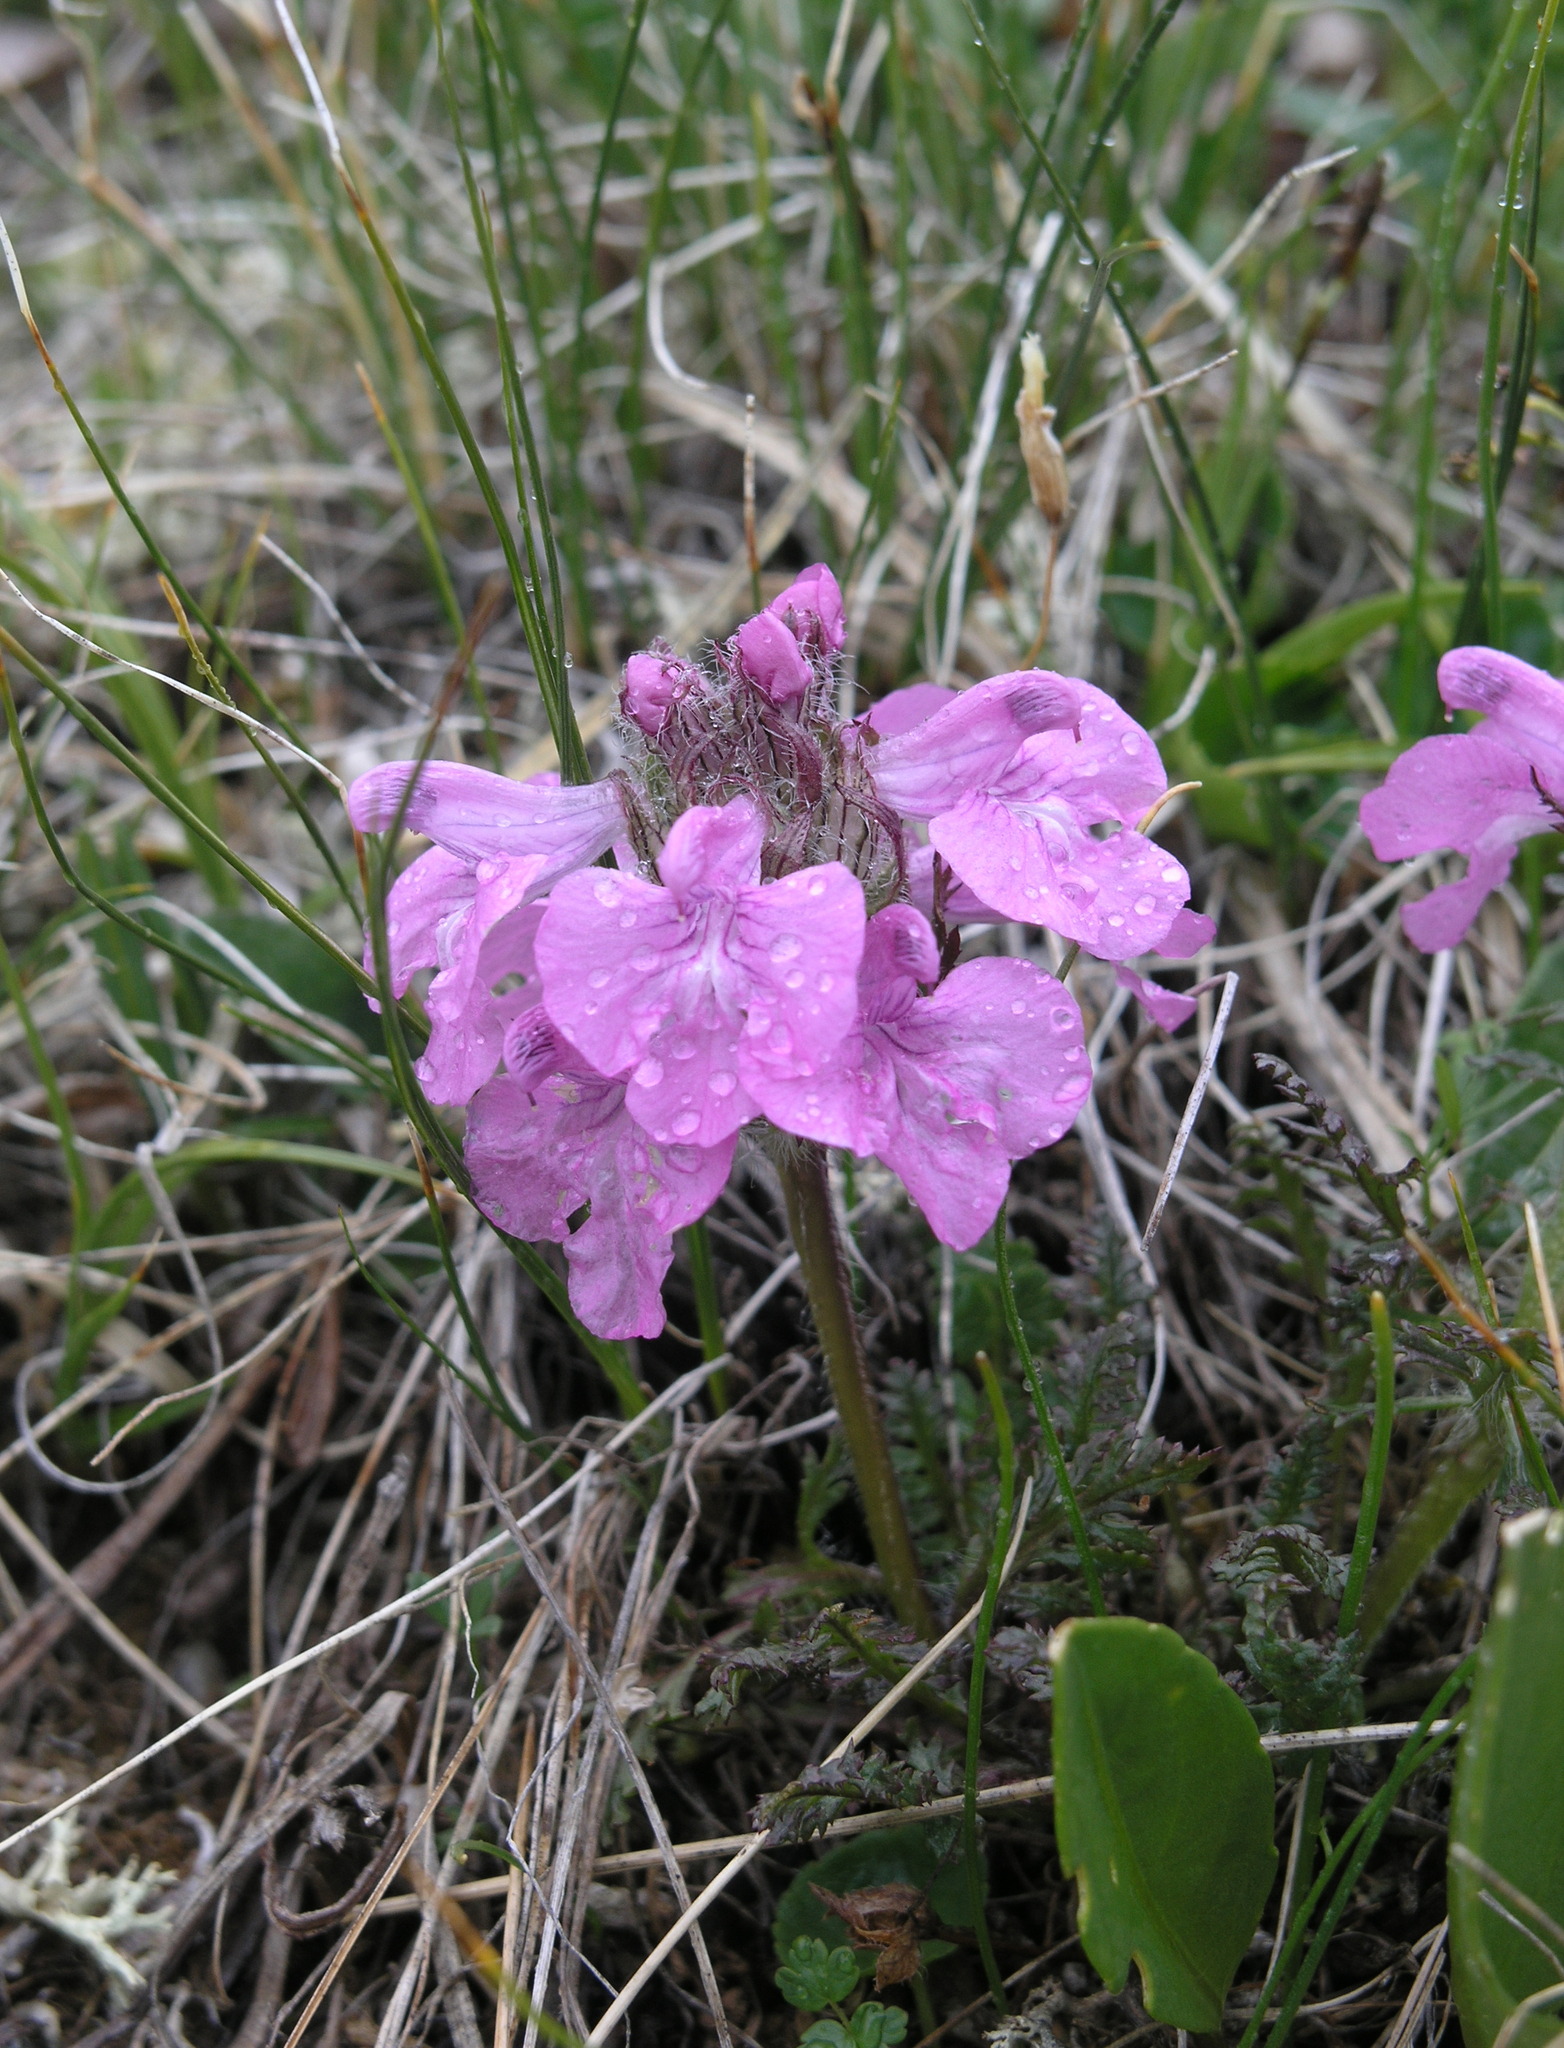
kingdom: Plantae
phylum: Tracheophyta
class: Magnoliopsida
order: Lamiales
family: Orobanchaceae
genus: Pedicularis
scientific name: Pedicularis anthemifolia
